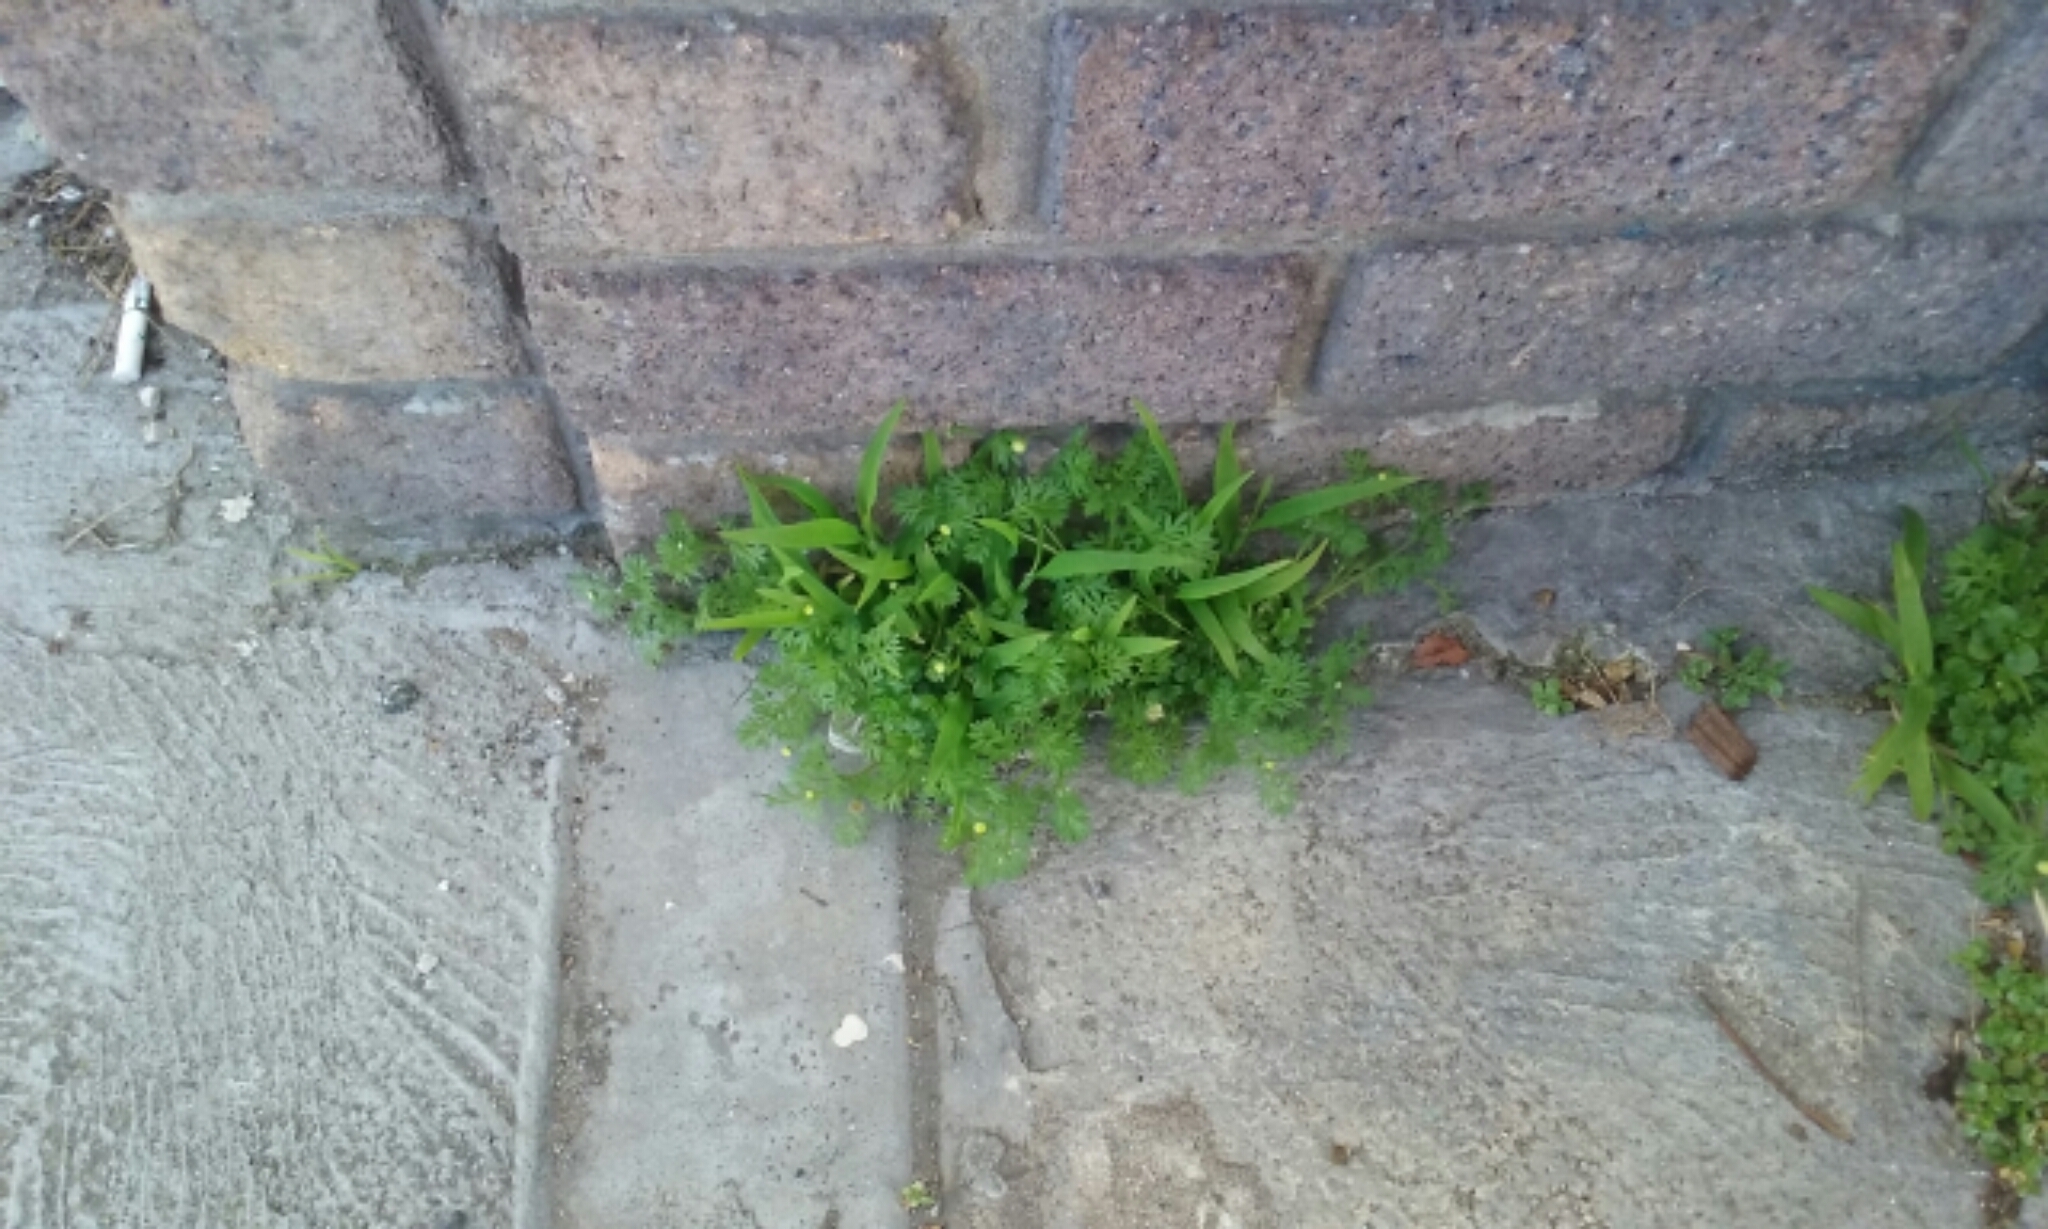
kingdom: Plantae
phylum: Tracheophyta
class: Magnoliopsida
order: Asterales
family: Asteraceae
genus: Cotula
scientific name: Cotula australis
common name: Australian waterbuttons
